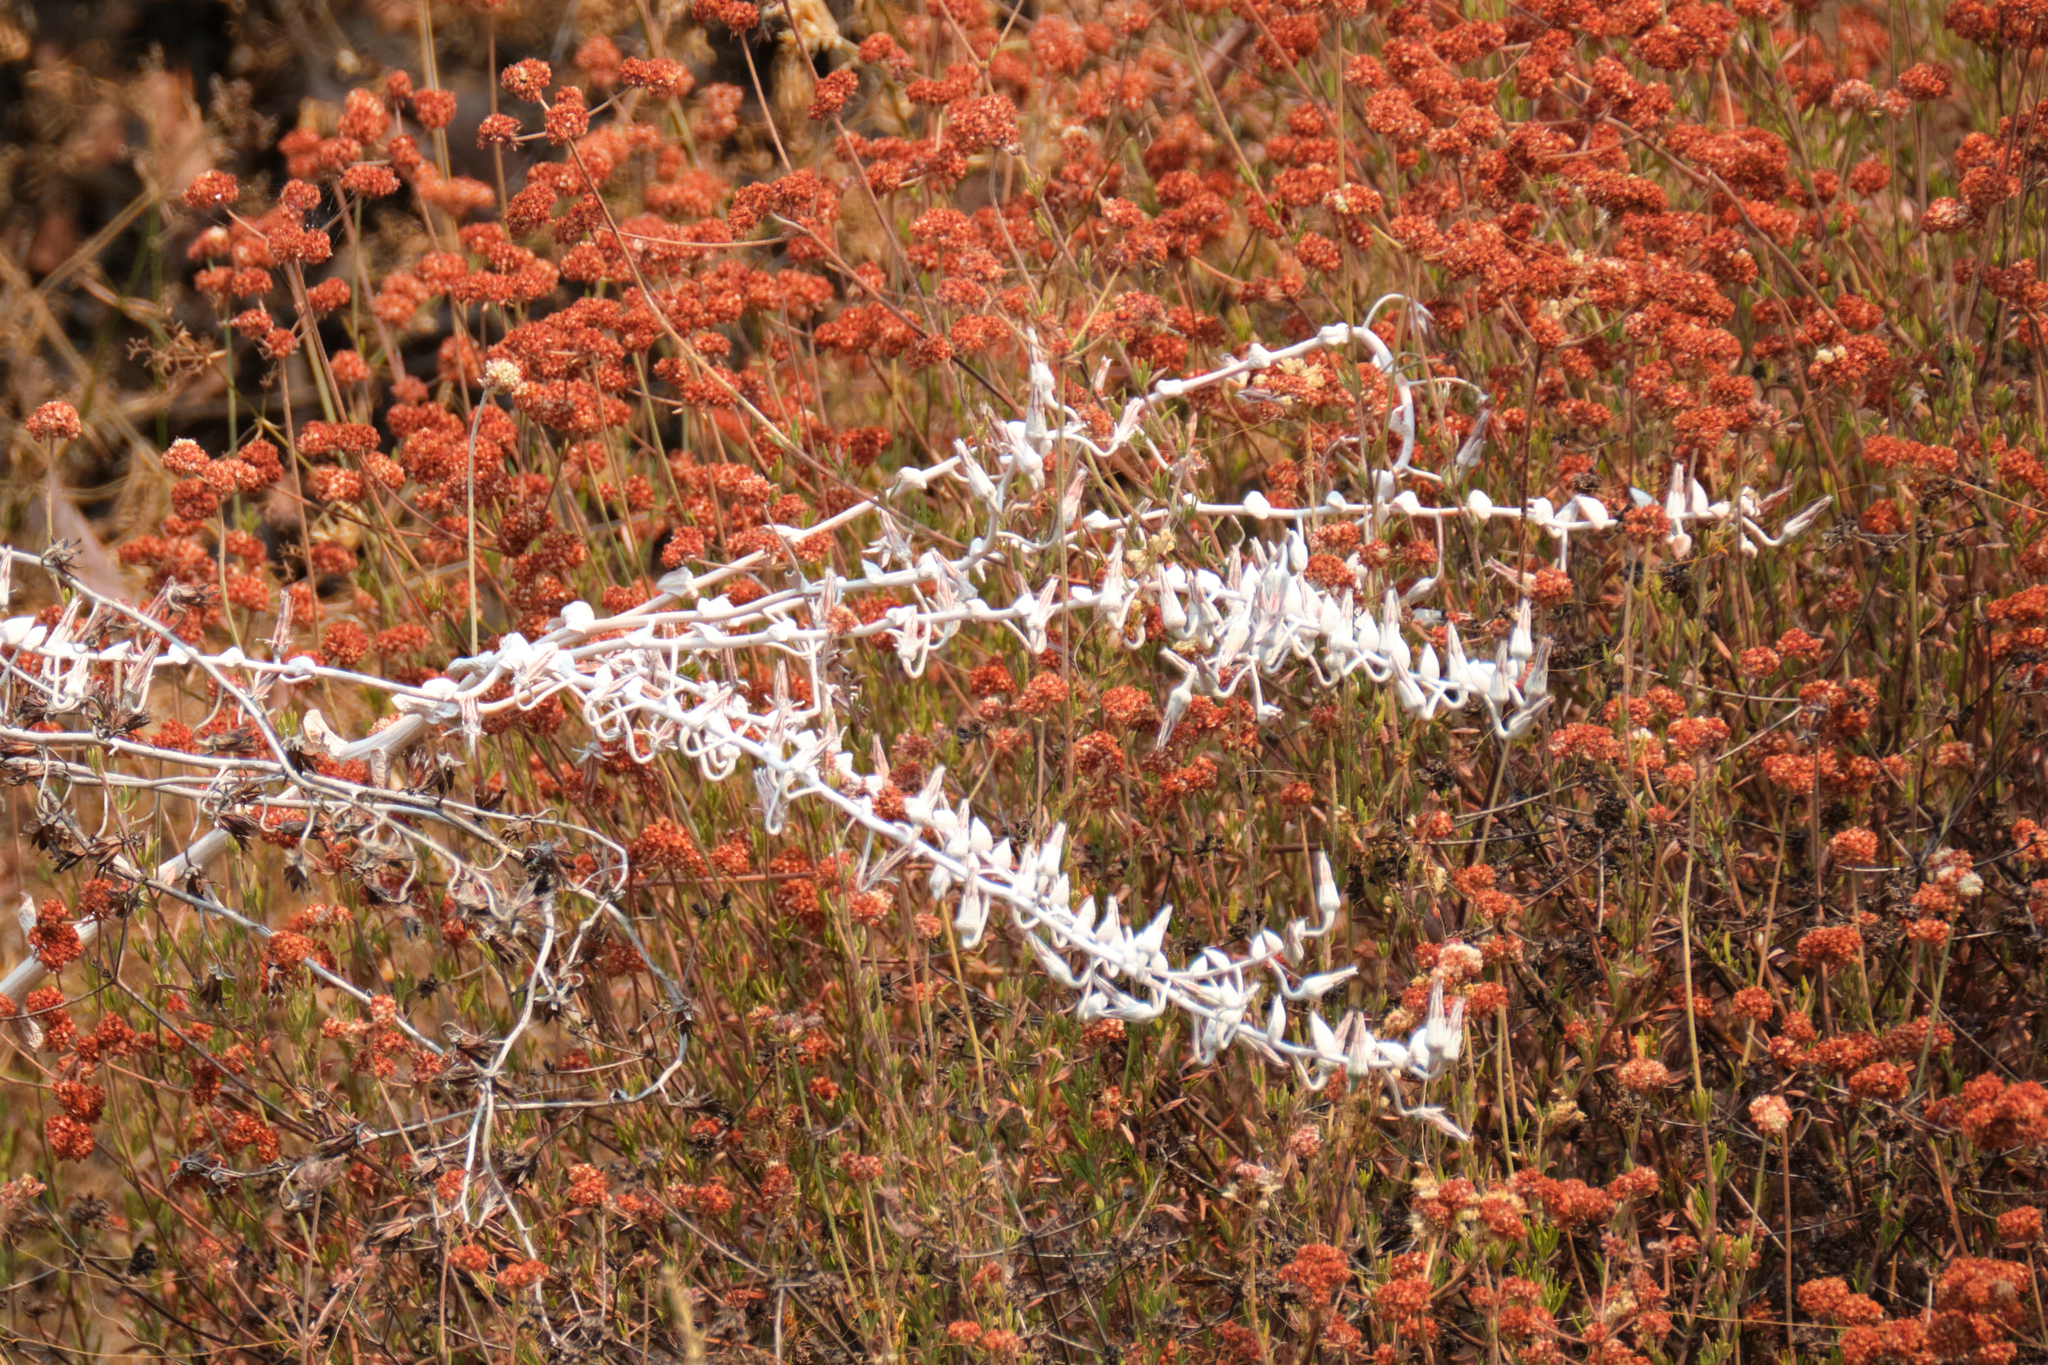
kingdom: Plantae
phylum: Tracheophyta
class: Magnoliopsida
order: Saxifragales
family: Crassulaceae
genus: Dudleya
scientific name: Dudleya pulverulenta
